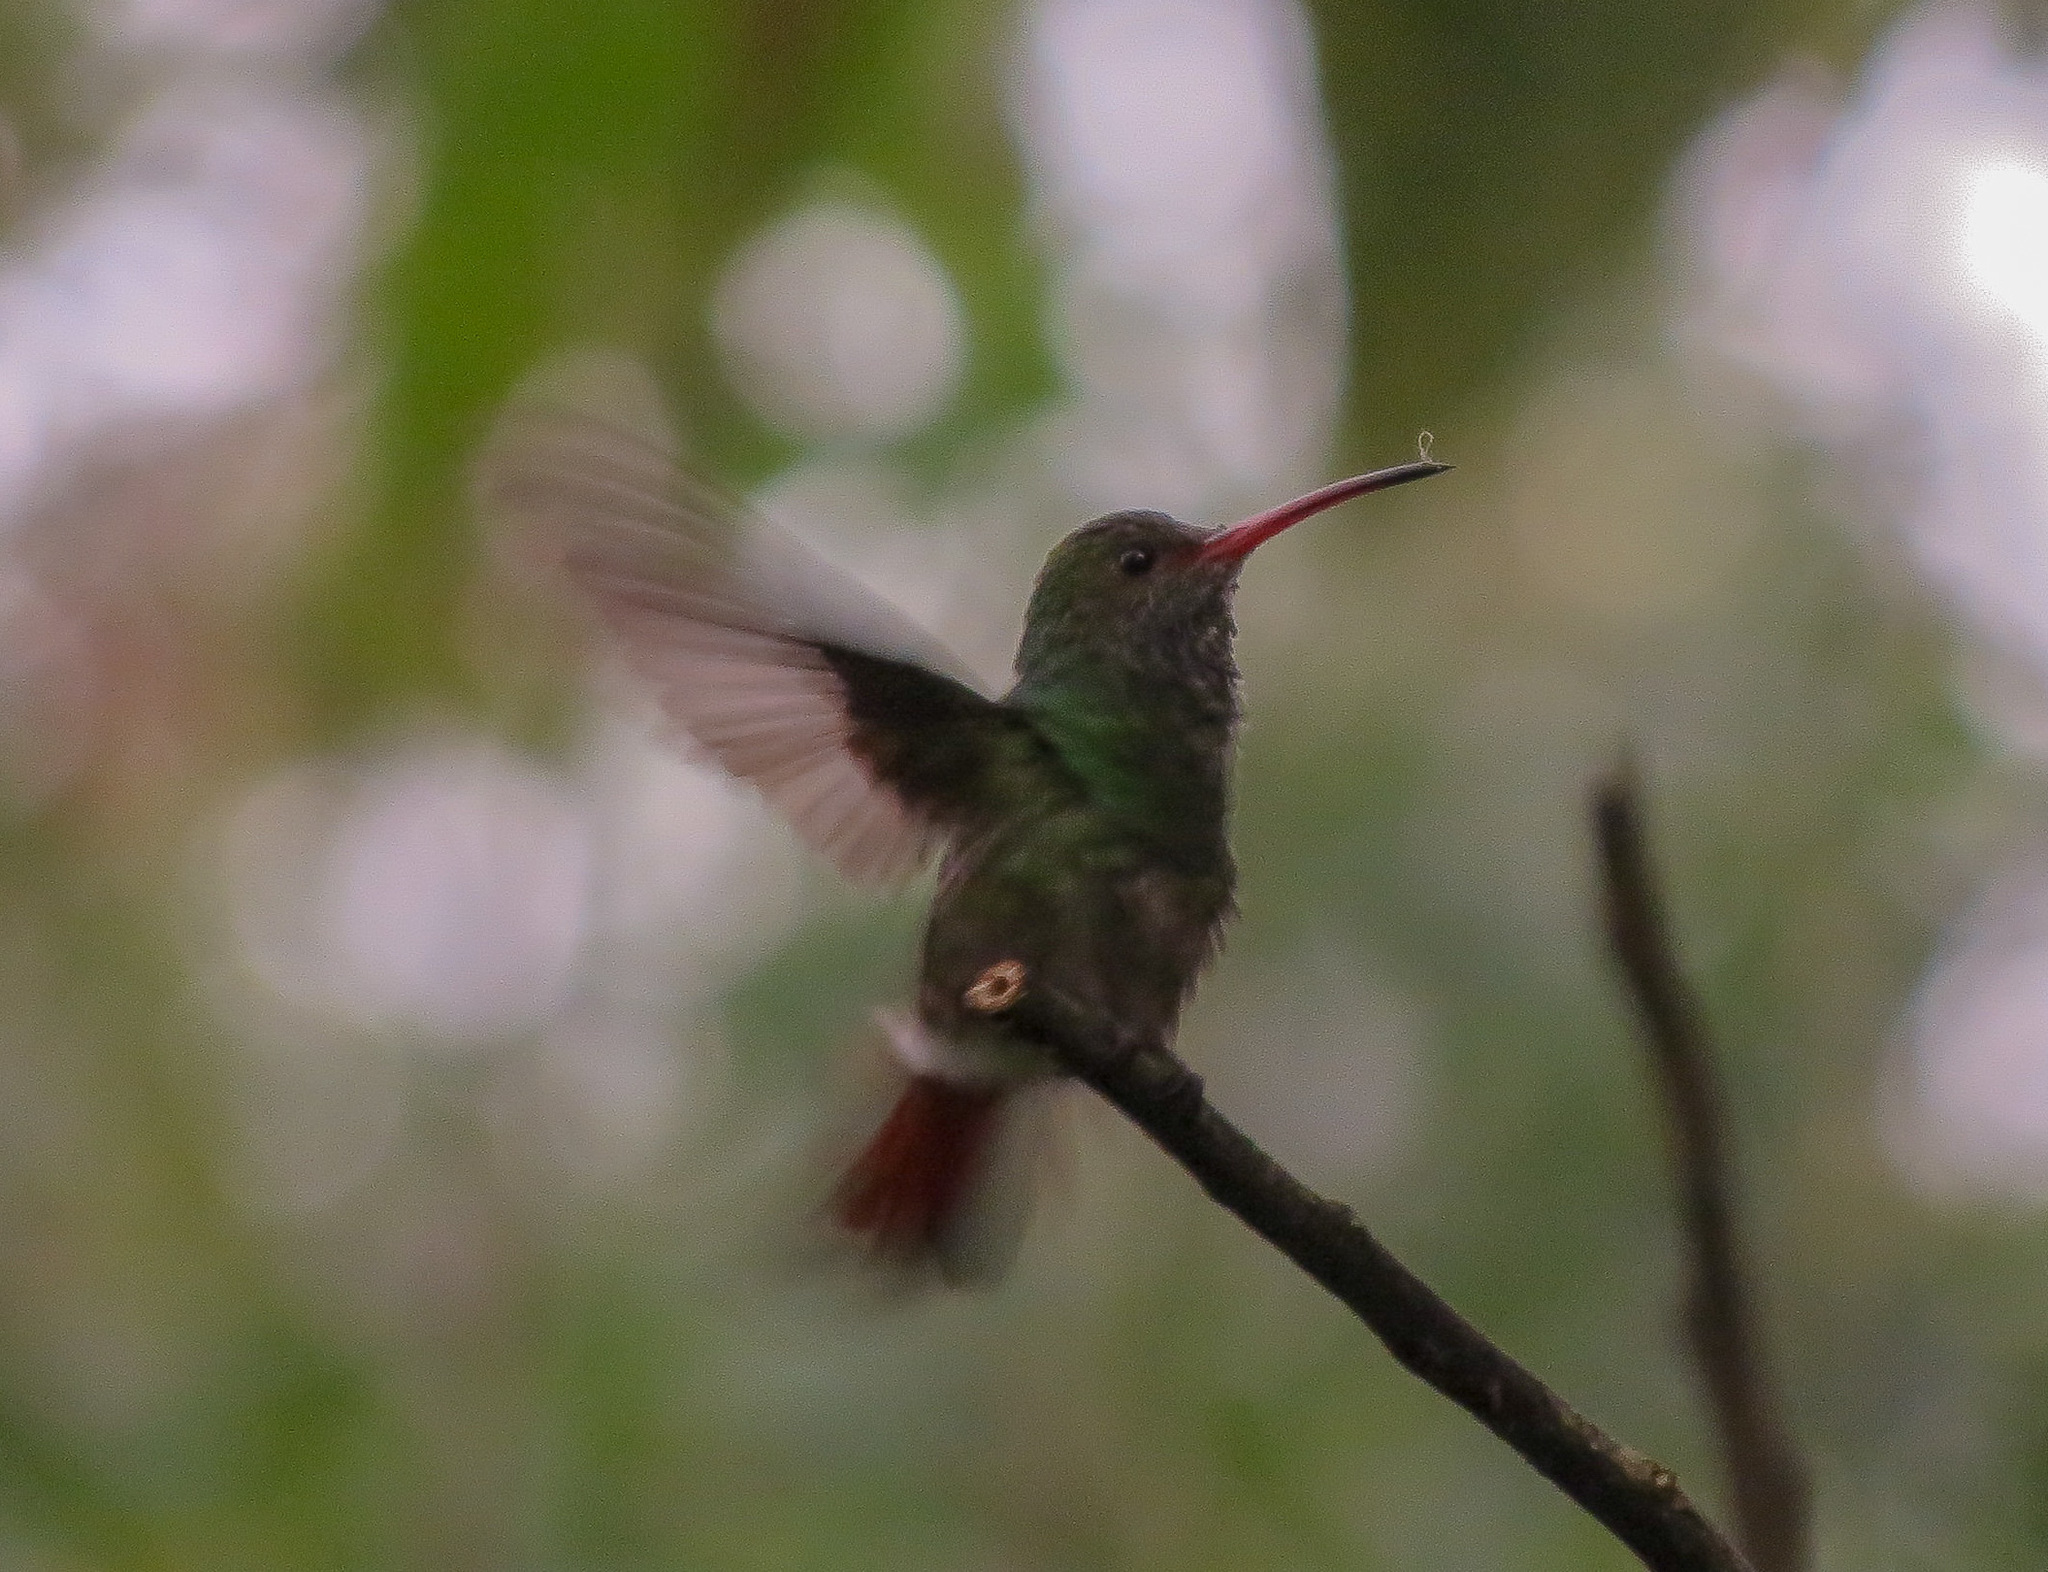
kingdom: Animalia
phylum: Chordata
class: Aves
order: Apodiformes
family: Trochilidae
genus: Amazilia
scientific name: Amazilia tzacatl
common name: Rufous-tailed hummingbird
